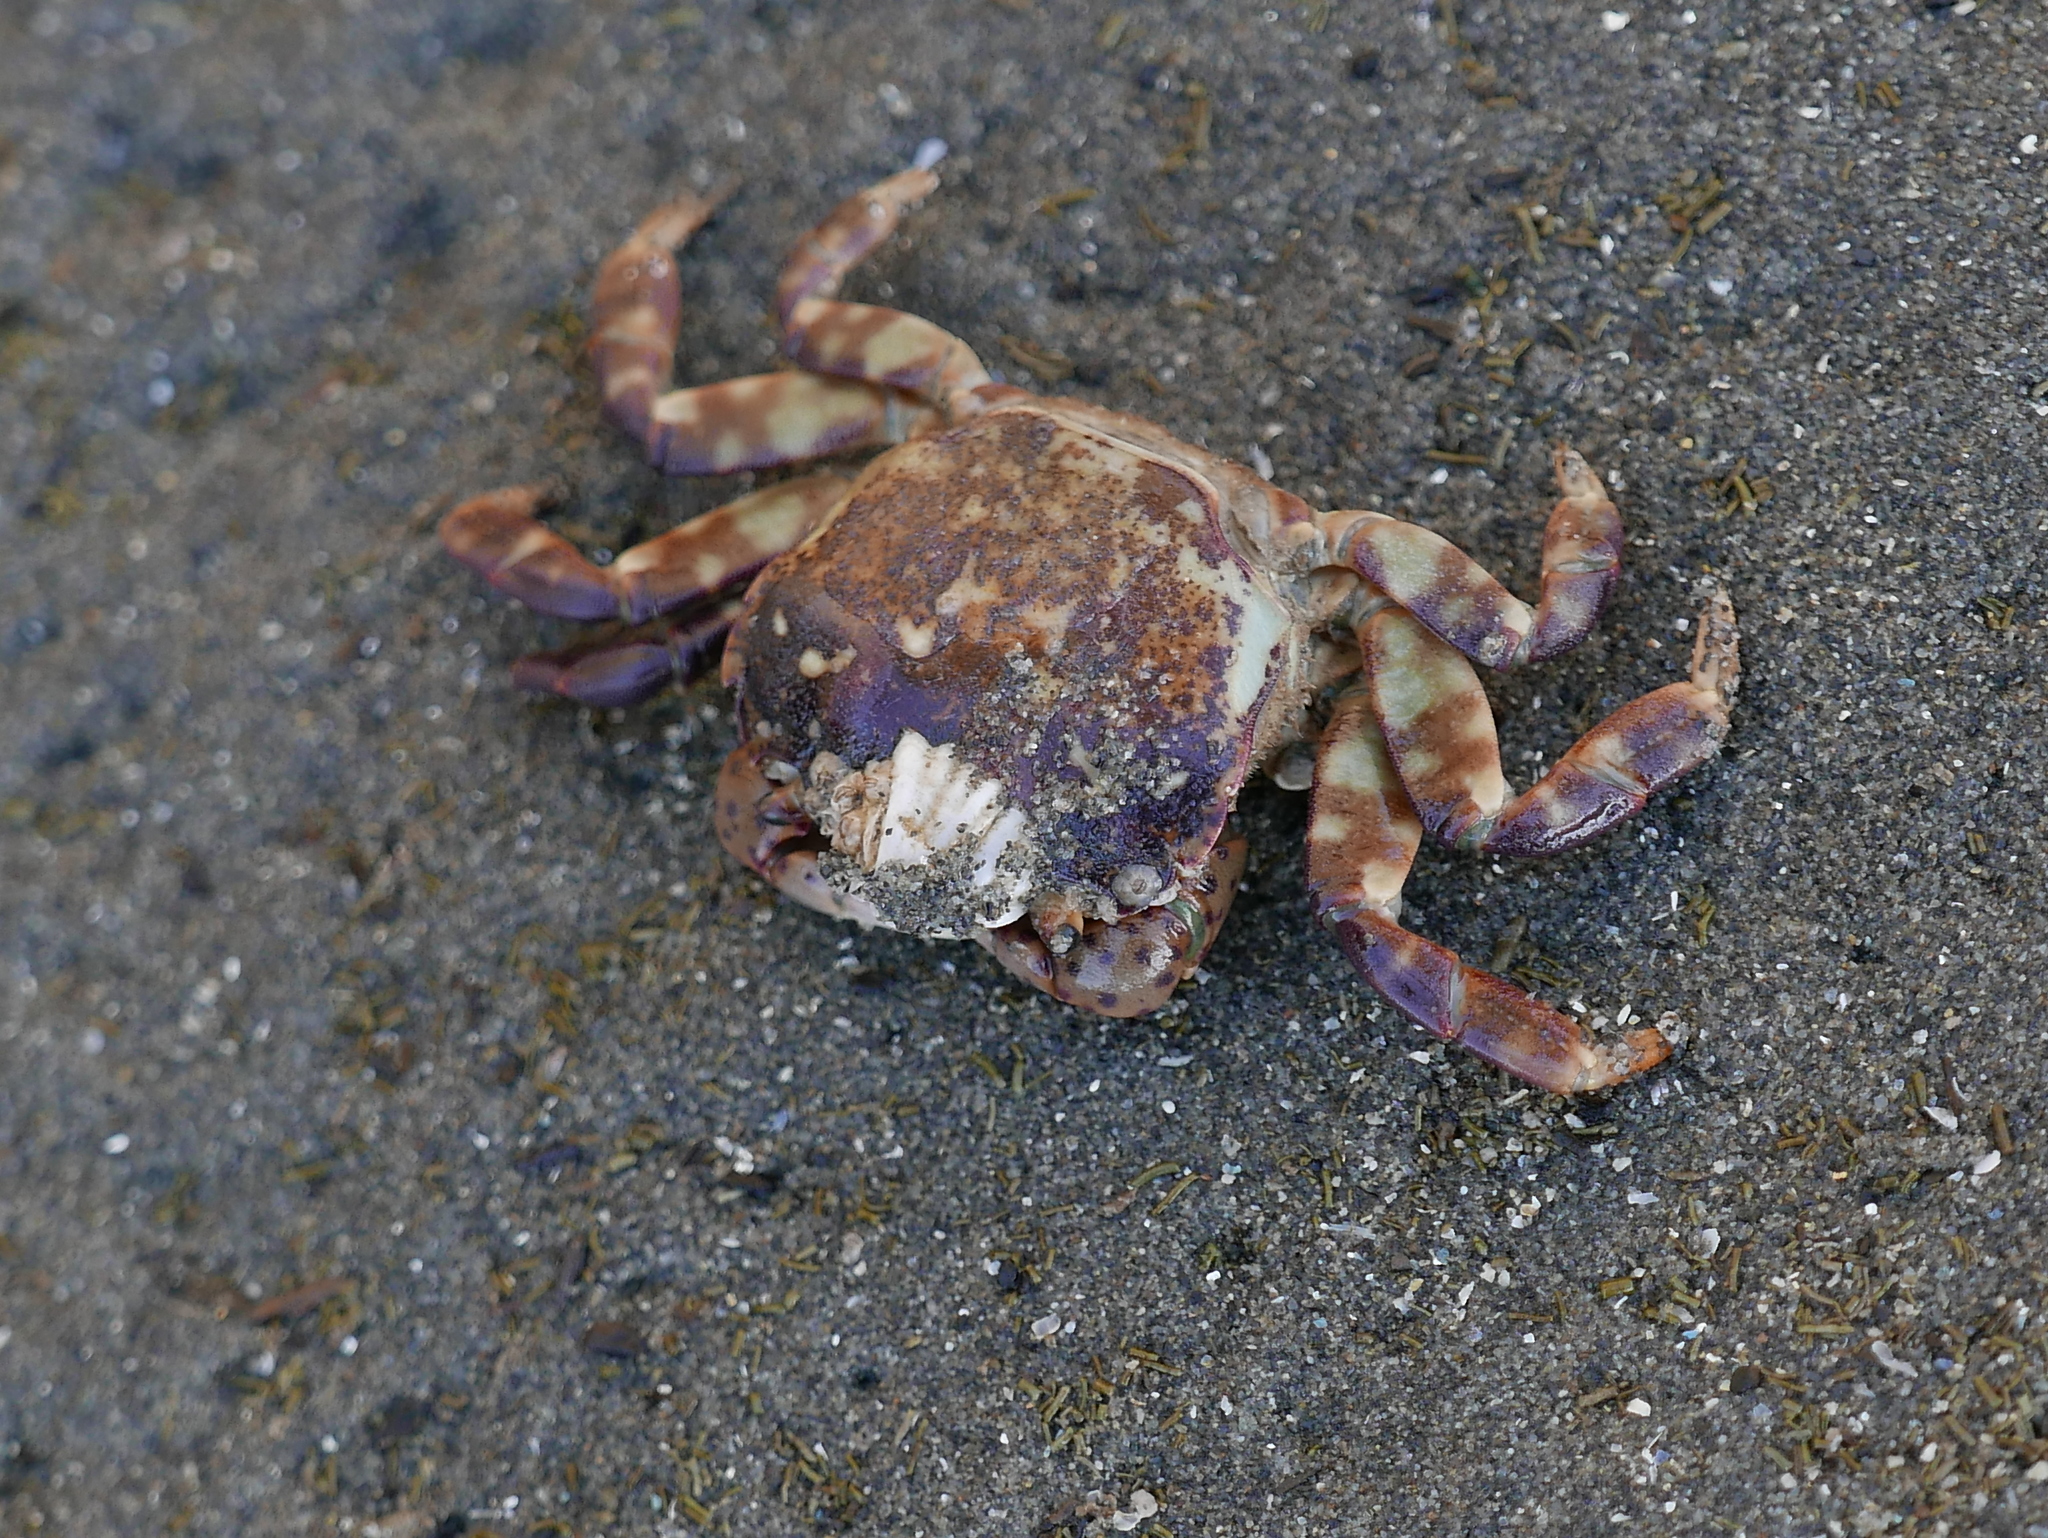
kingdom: Animalia
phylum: Arthropoda
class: Malacostraca
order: Decapoda
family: Varunidae
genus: Hemigrapsus
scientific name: Hemigrapsus nudus
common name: Purple shore crab
